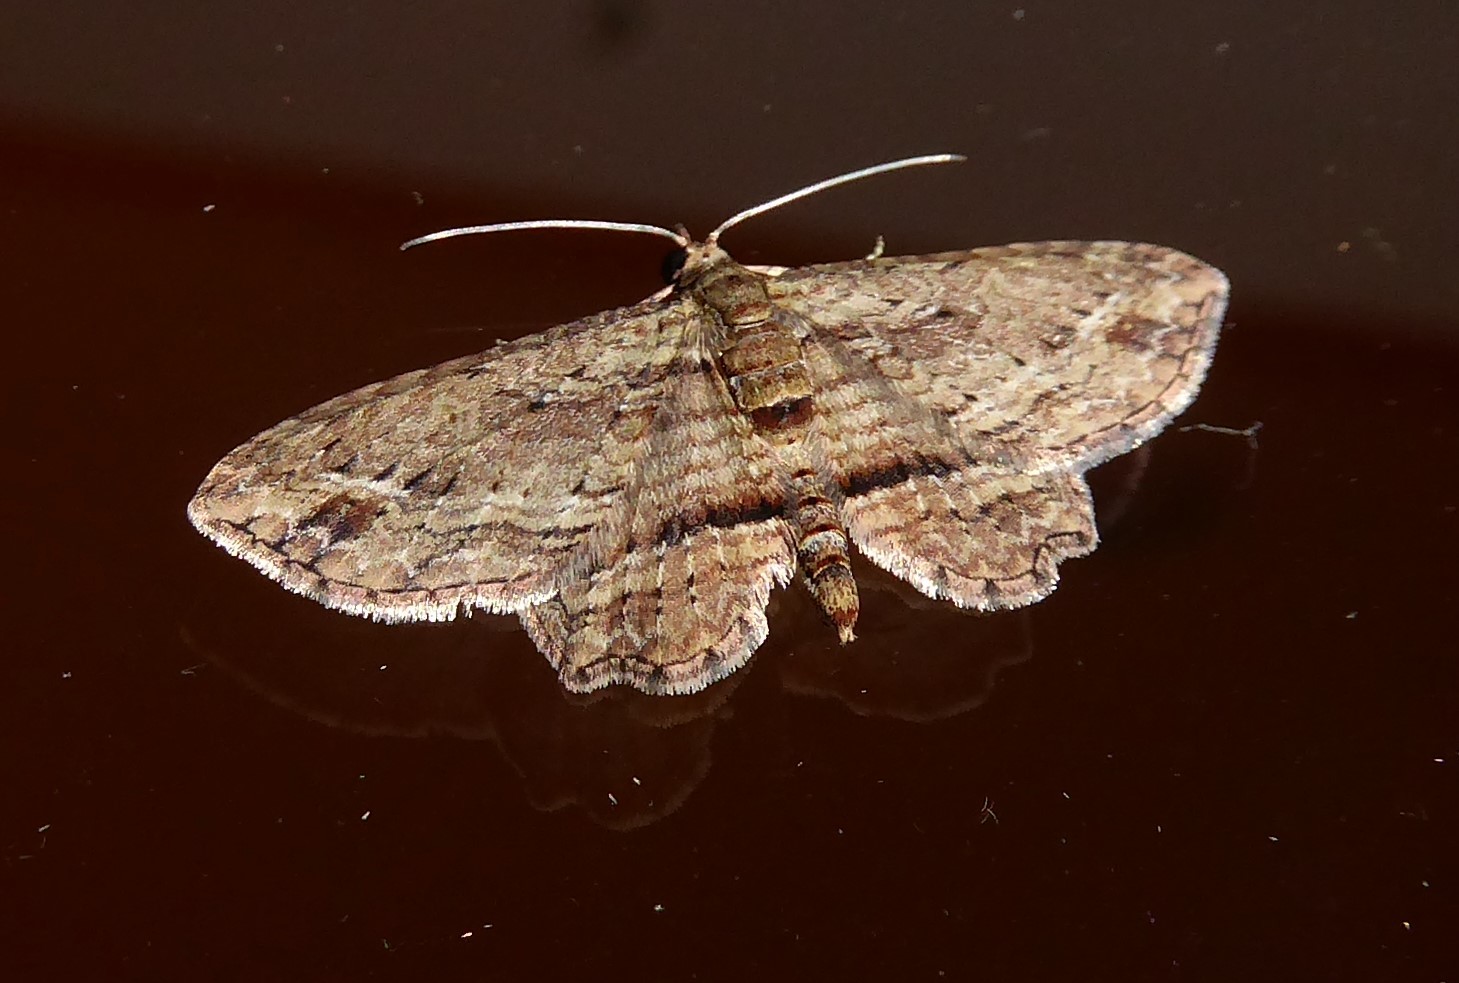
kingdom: Animalia
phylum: Arthropoda
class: Insecta
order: Lepidoptera
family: Geometridae
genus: Chloroclystis
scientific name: Chloroclystis filata
